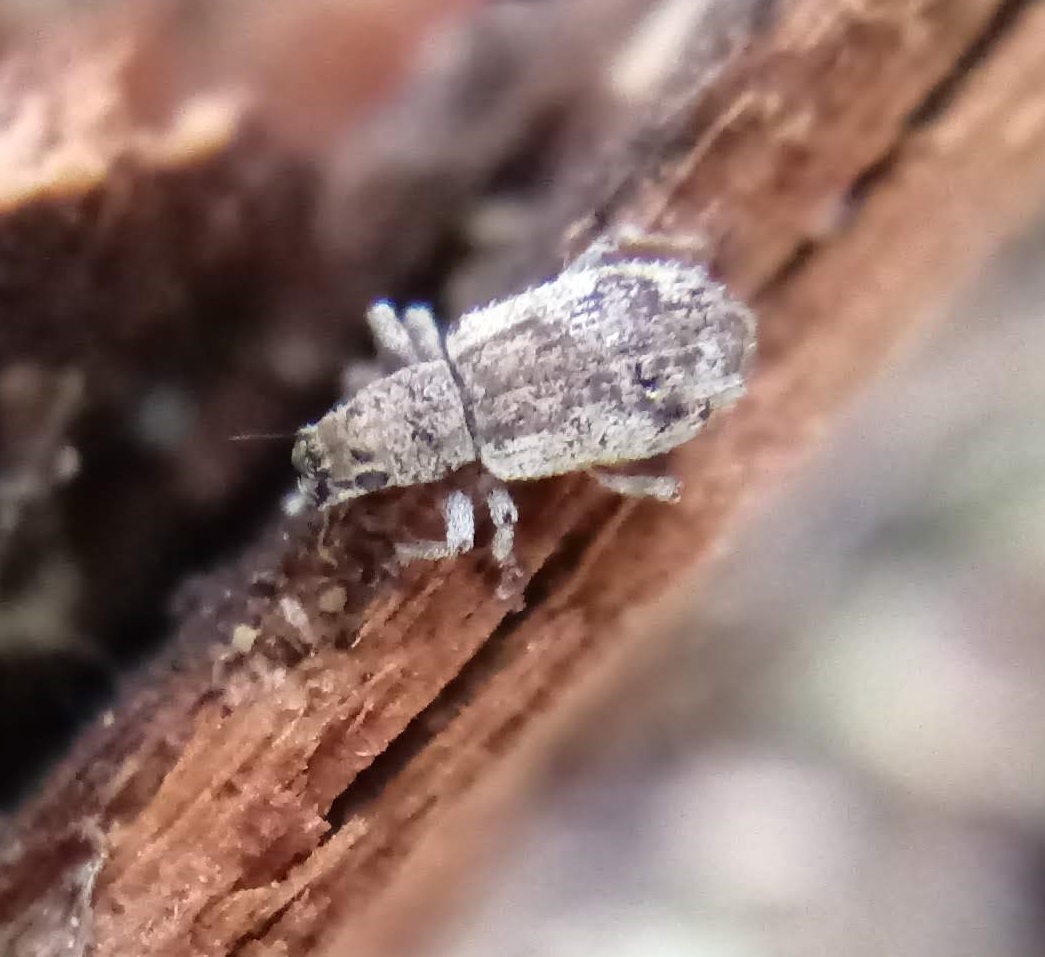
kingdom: Animalia
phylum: Arthropoda
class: Insecta
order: Coleoptera
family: Curculionidae
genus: Pseudoedophrys
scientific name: Pseudoedophrys hilleri
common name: Weevil
